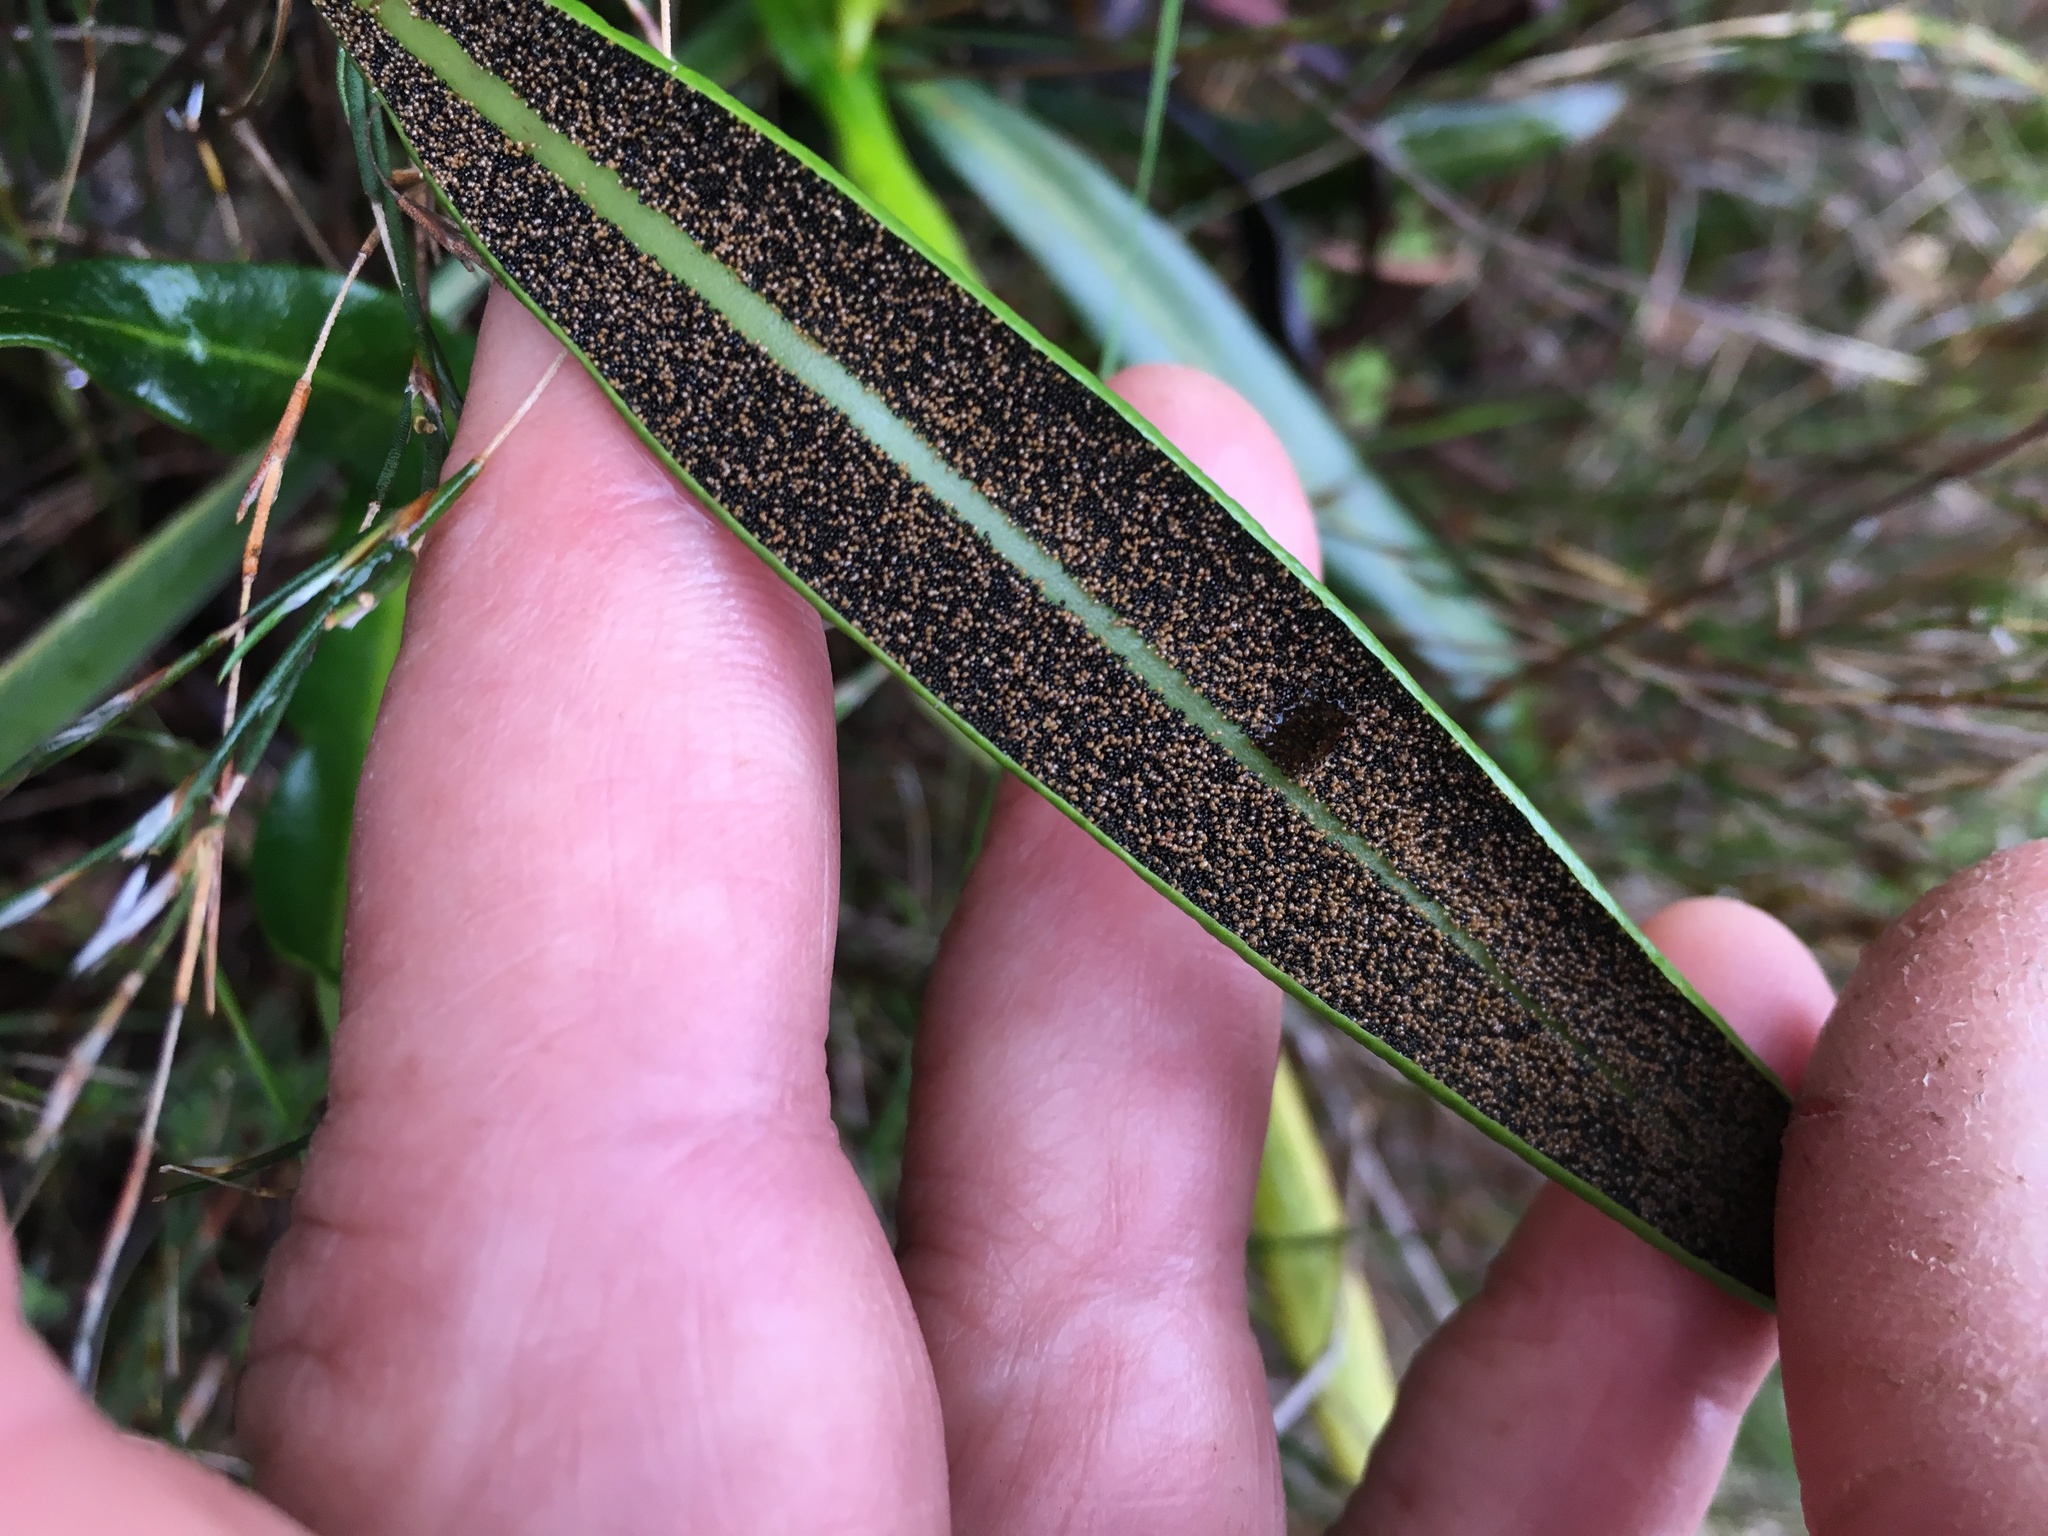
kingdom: Plantae
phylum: Tracheophyta
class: Polypodiopsida
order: Polypodiales
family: Dryopteridaceae
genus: Elaphoglossum
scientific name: Elaphoglossum acrostichoides
